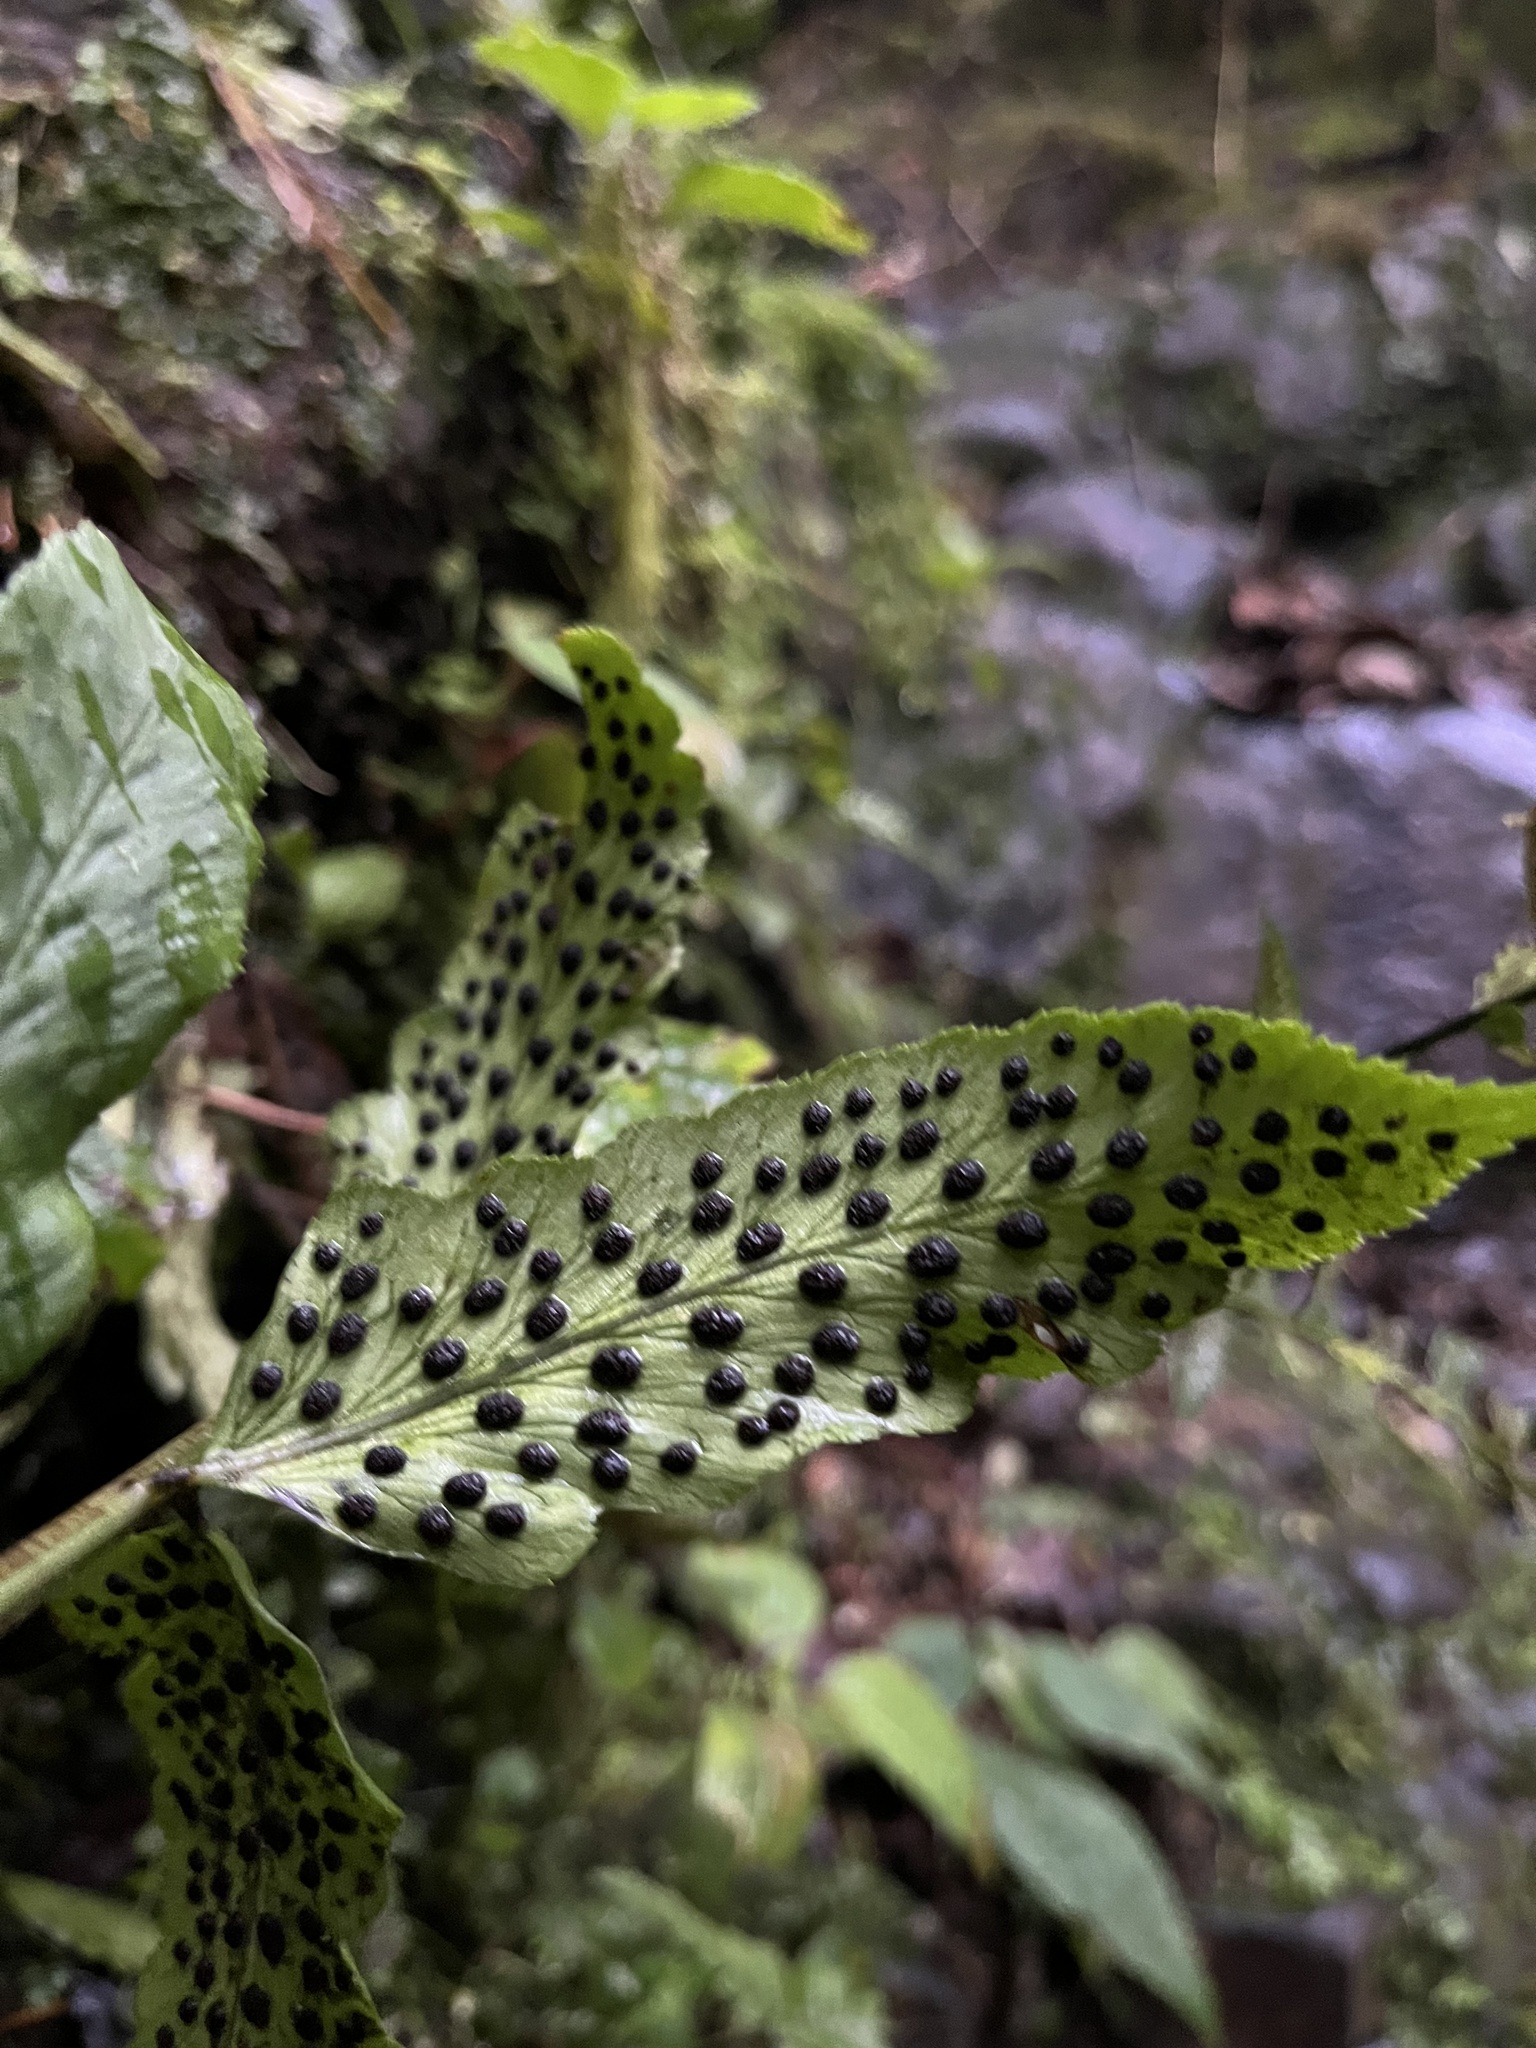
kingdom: Plantae
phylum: Tracheophyta
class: Polypodiopsida
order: Polypodiales
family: Dryopteridaceae
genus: Polystichum
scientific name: Polystichum dubium
